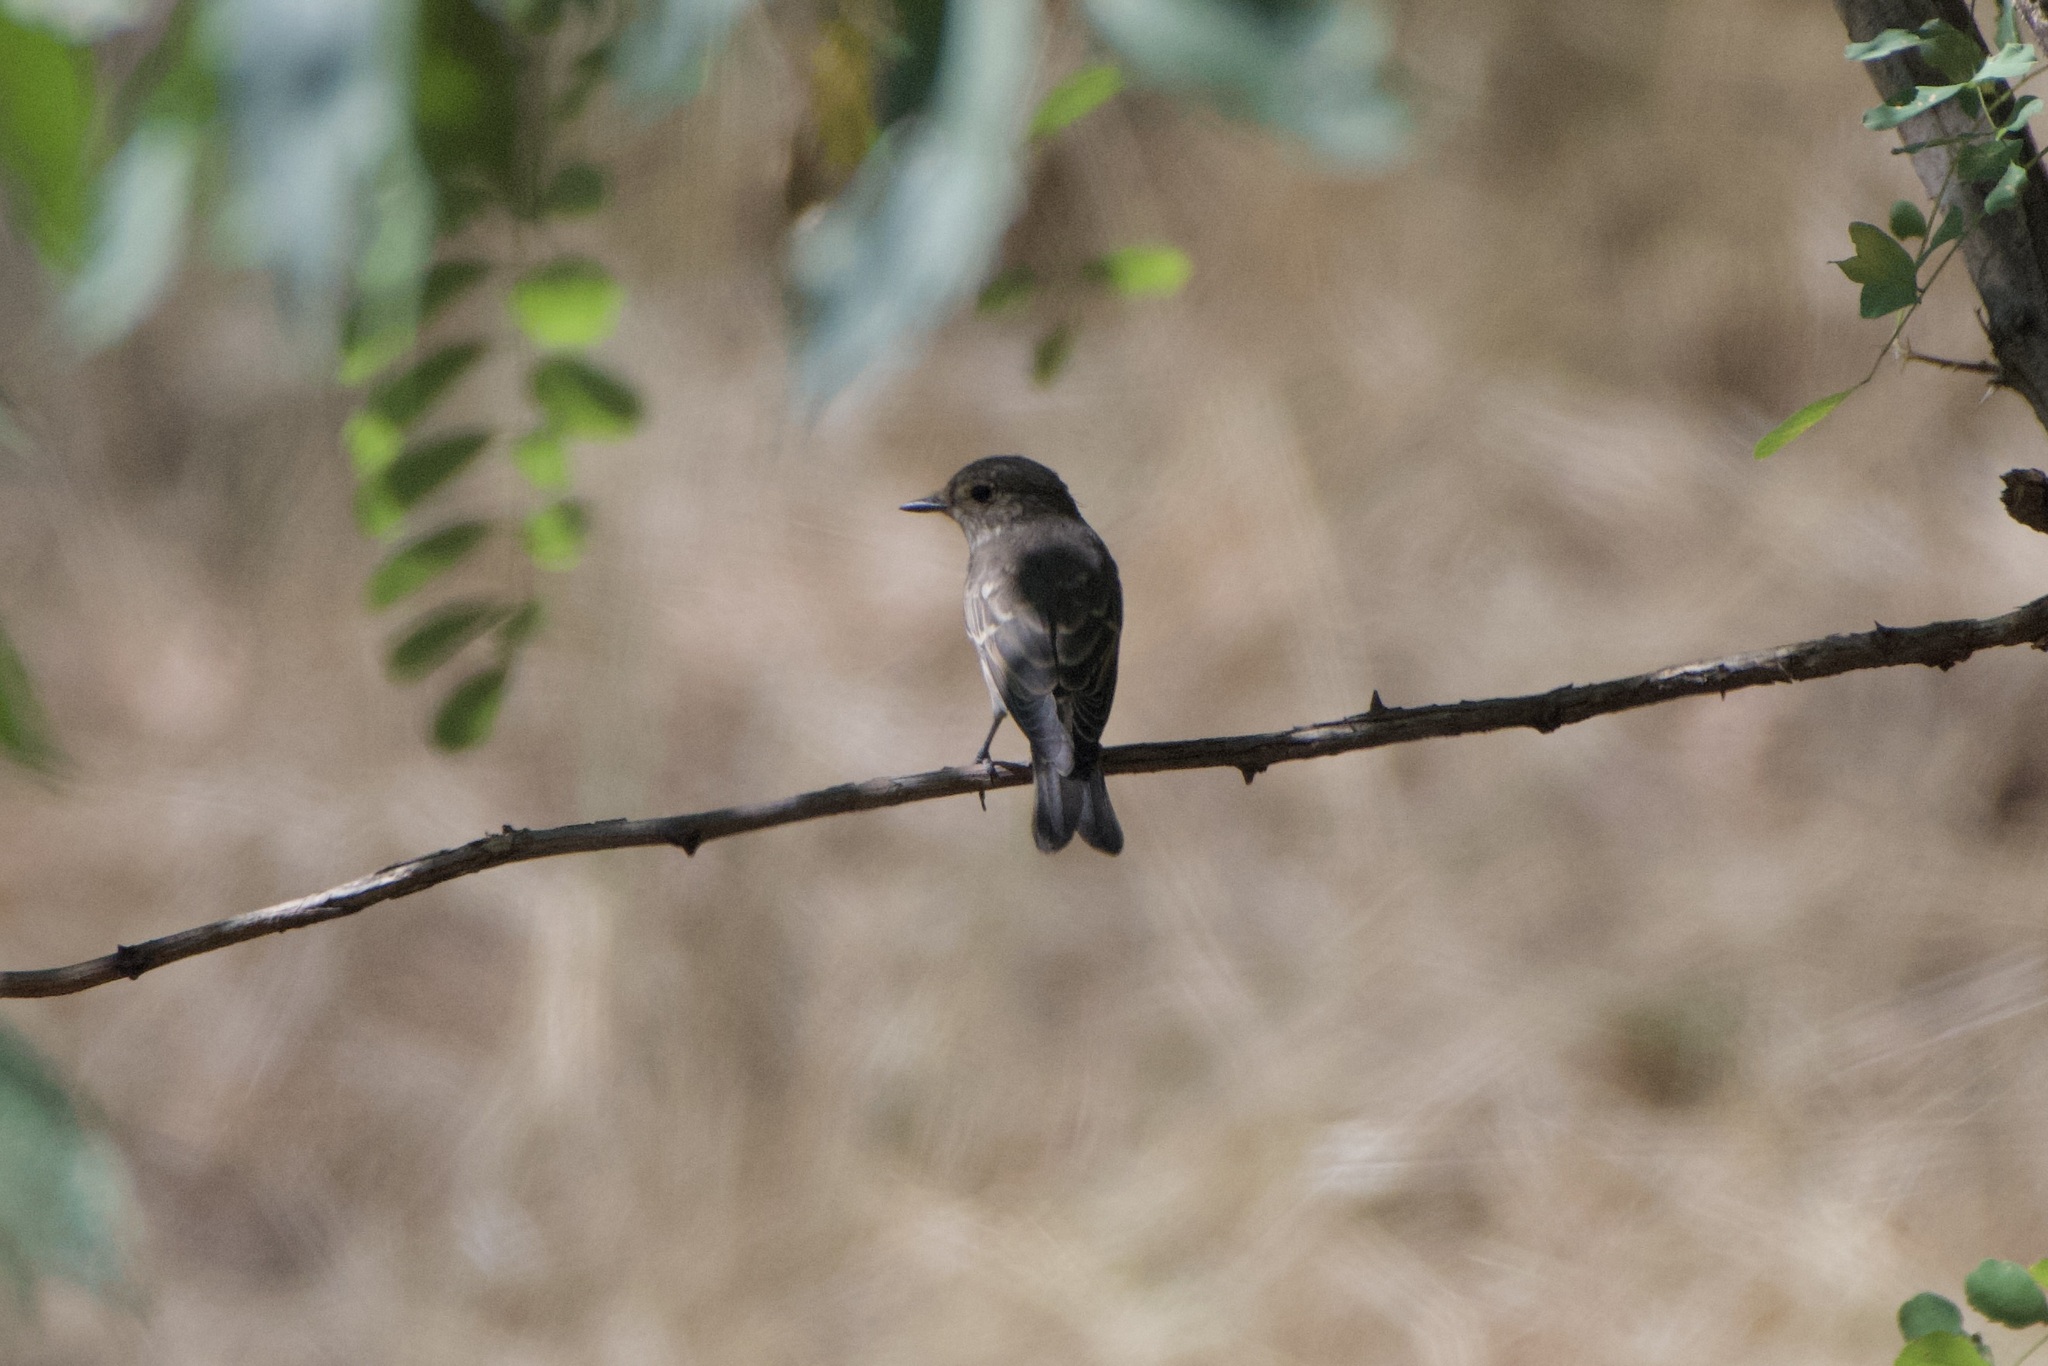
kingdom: Animalia
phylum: Chordata
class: Aves
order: Passeriformes
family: Muscicapidae
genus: Muscicapa
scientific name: Muscicapa striata
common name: Spotted flycatcher
